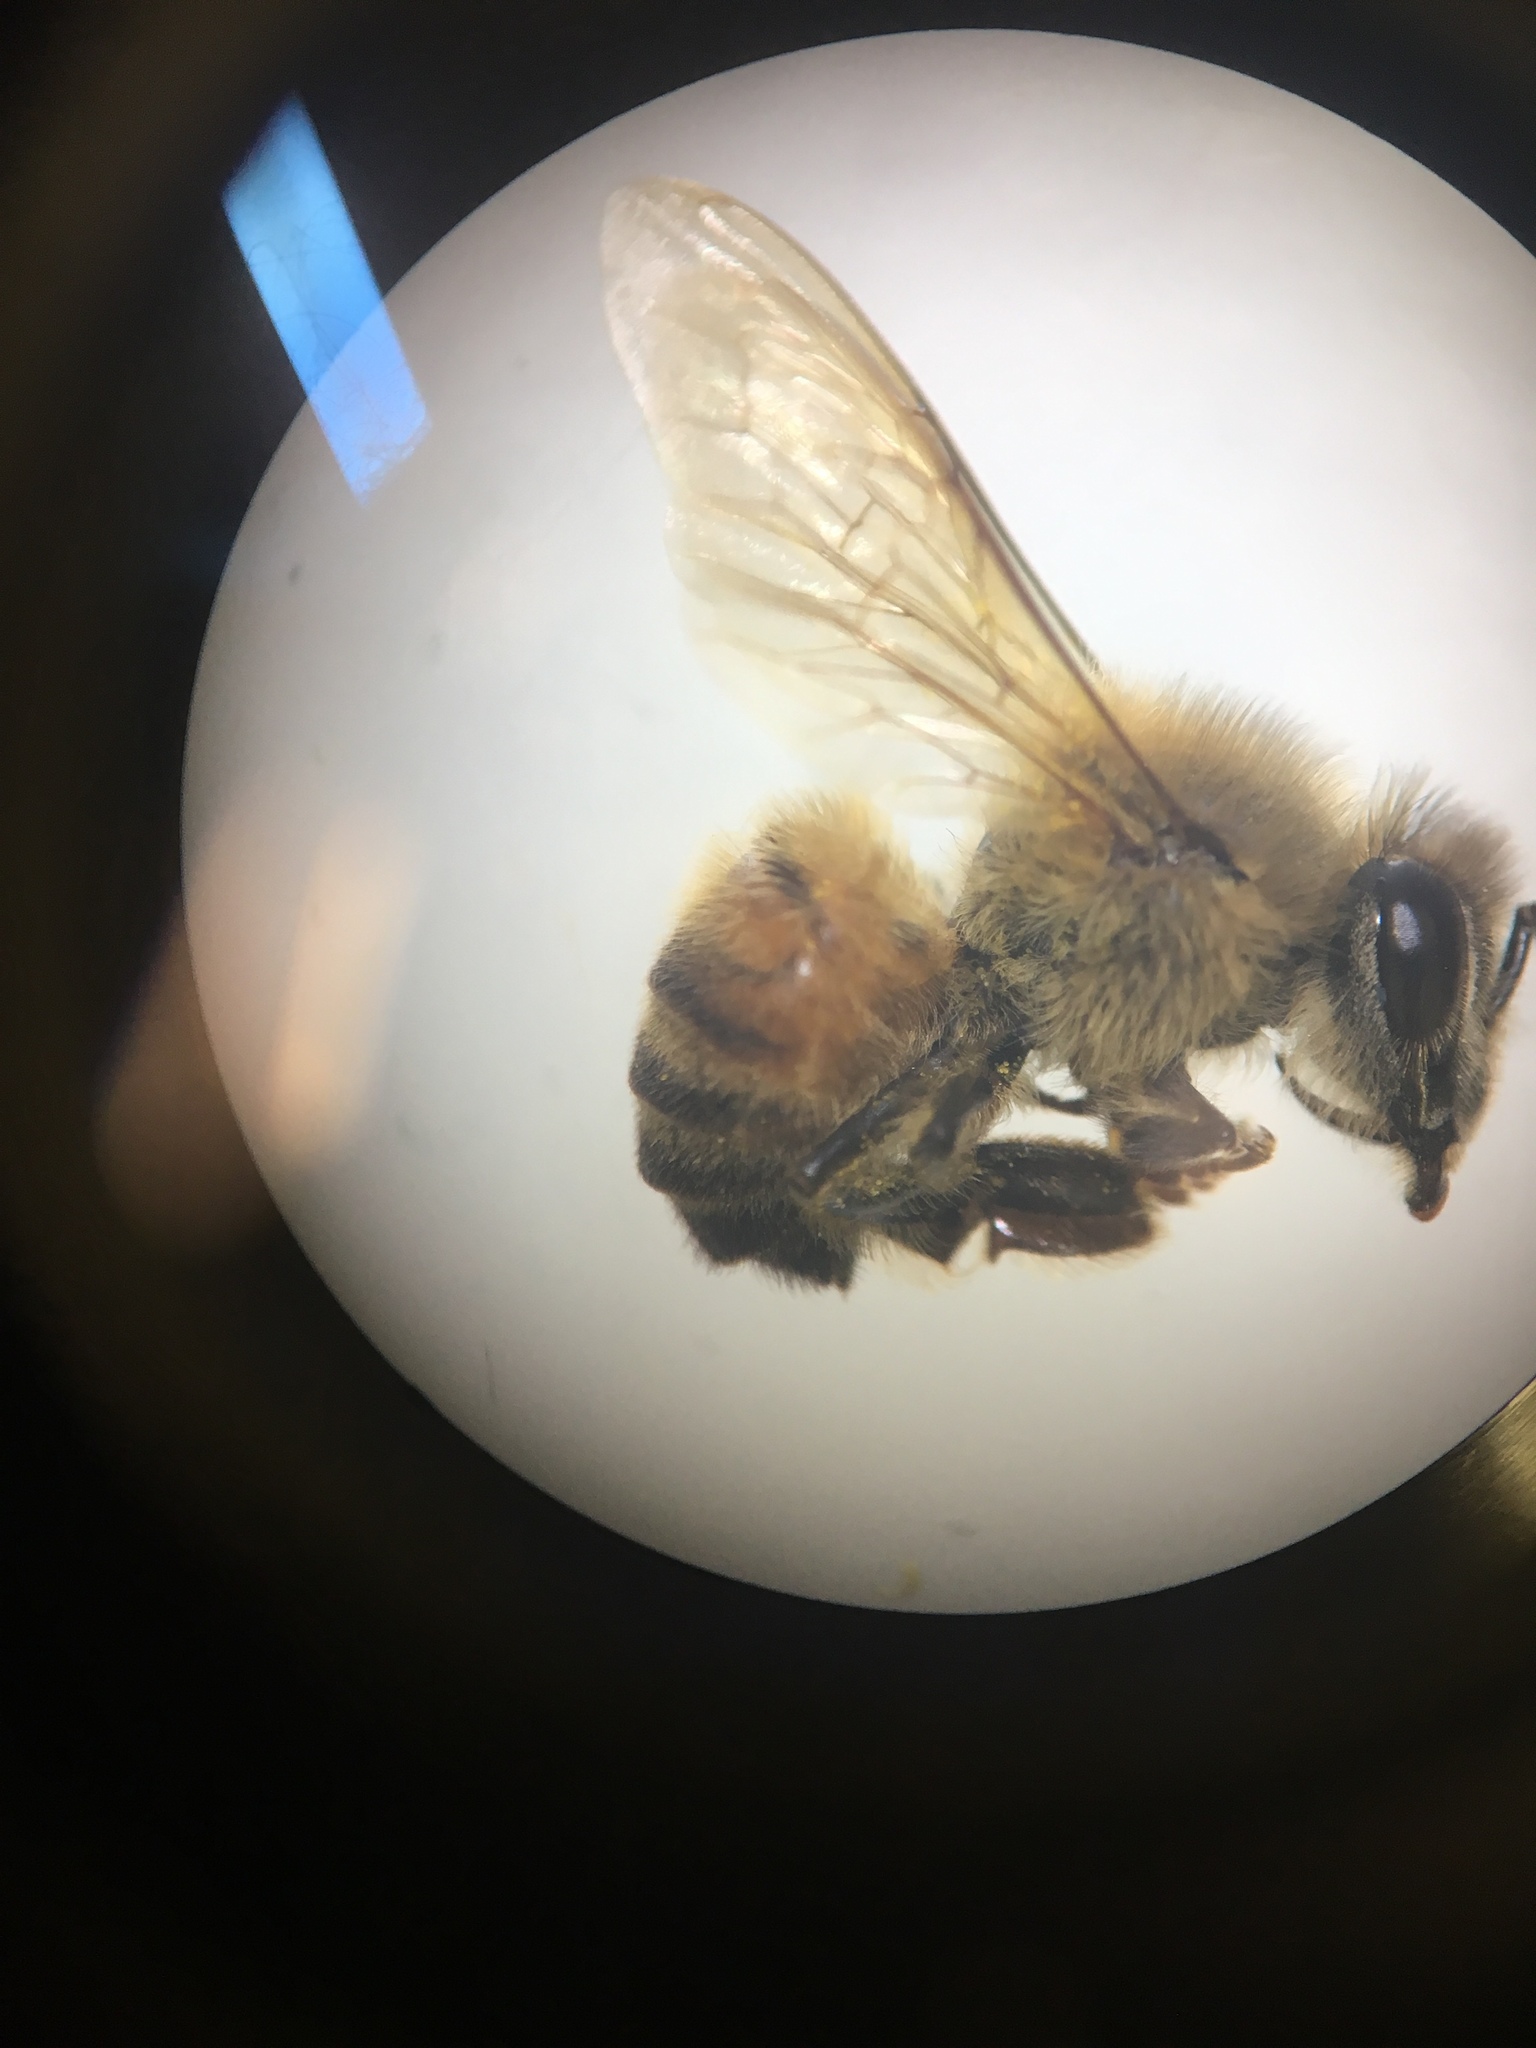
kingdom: Animalia
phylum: Arthropoda
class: Insecta
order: Hymenoptera
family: Apidae
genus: Apis
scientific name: Apis mellifera
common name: Honey bee
